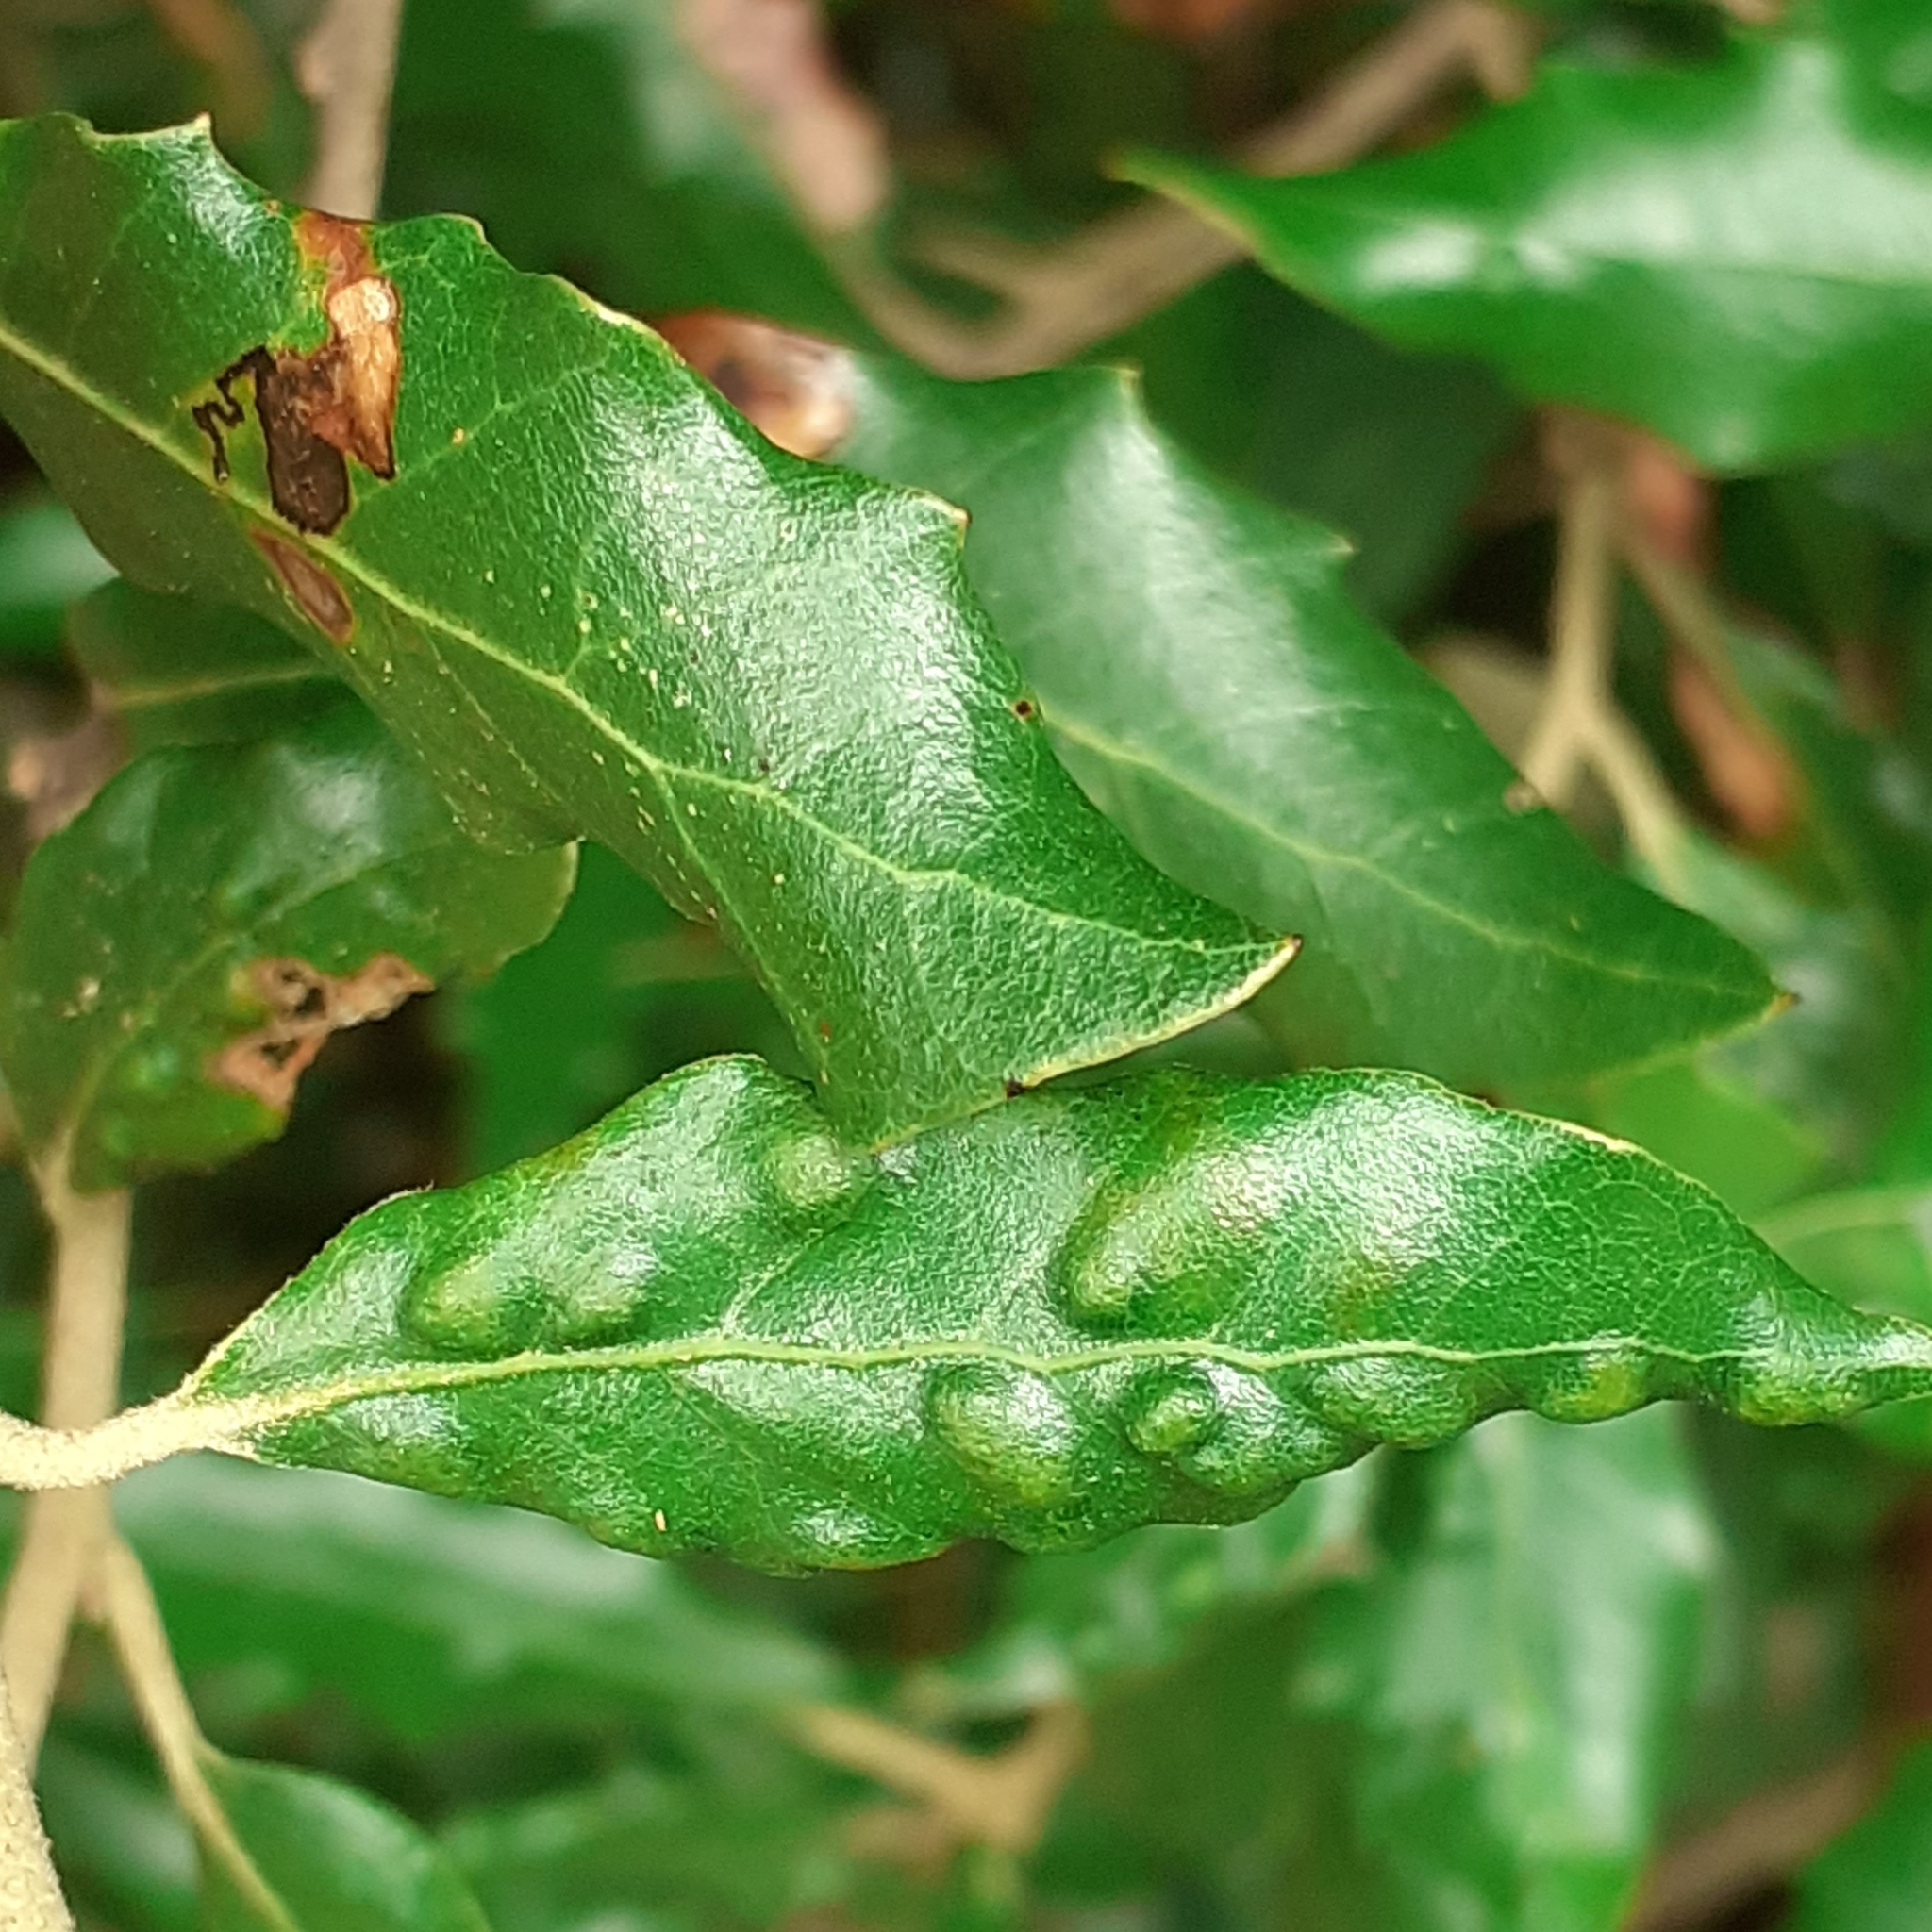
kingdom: Animalia
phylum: Arthropoda
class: Arachnida
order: Trombidiformes
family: Eriophyidae
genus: Aceria
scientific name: Aceria ilicis
